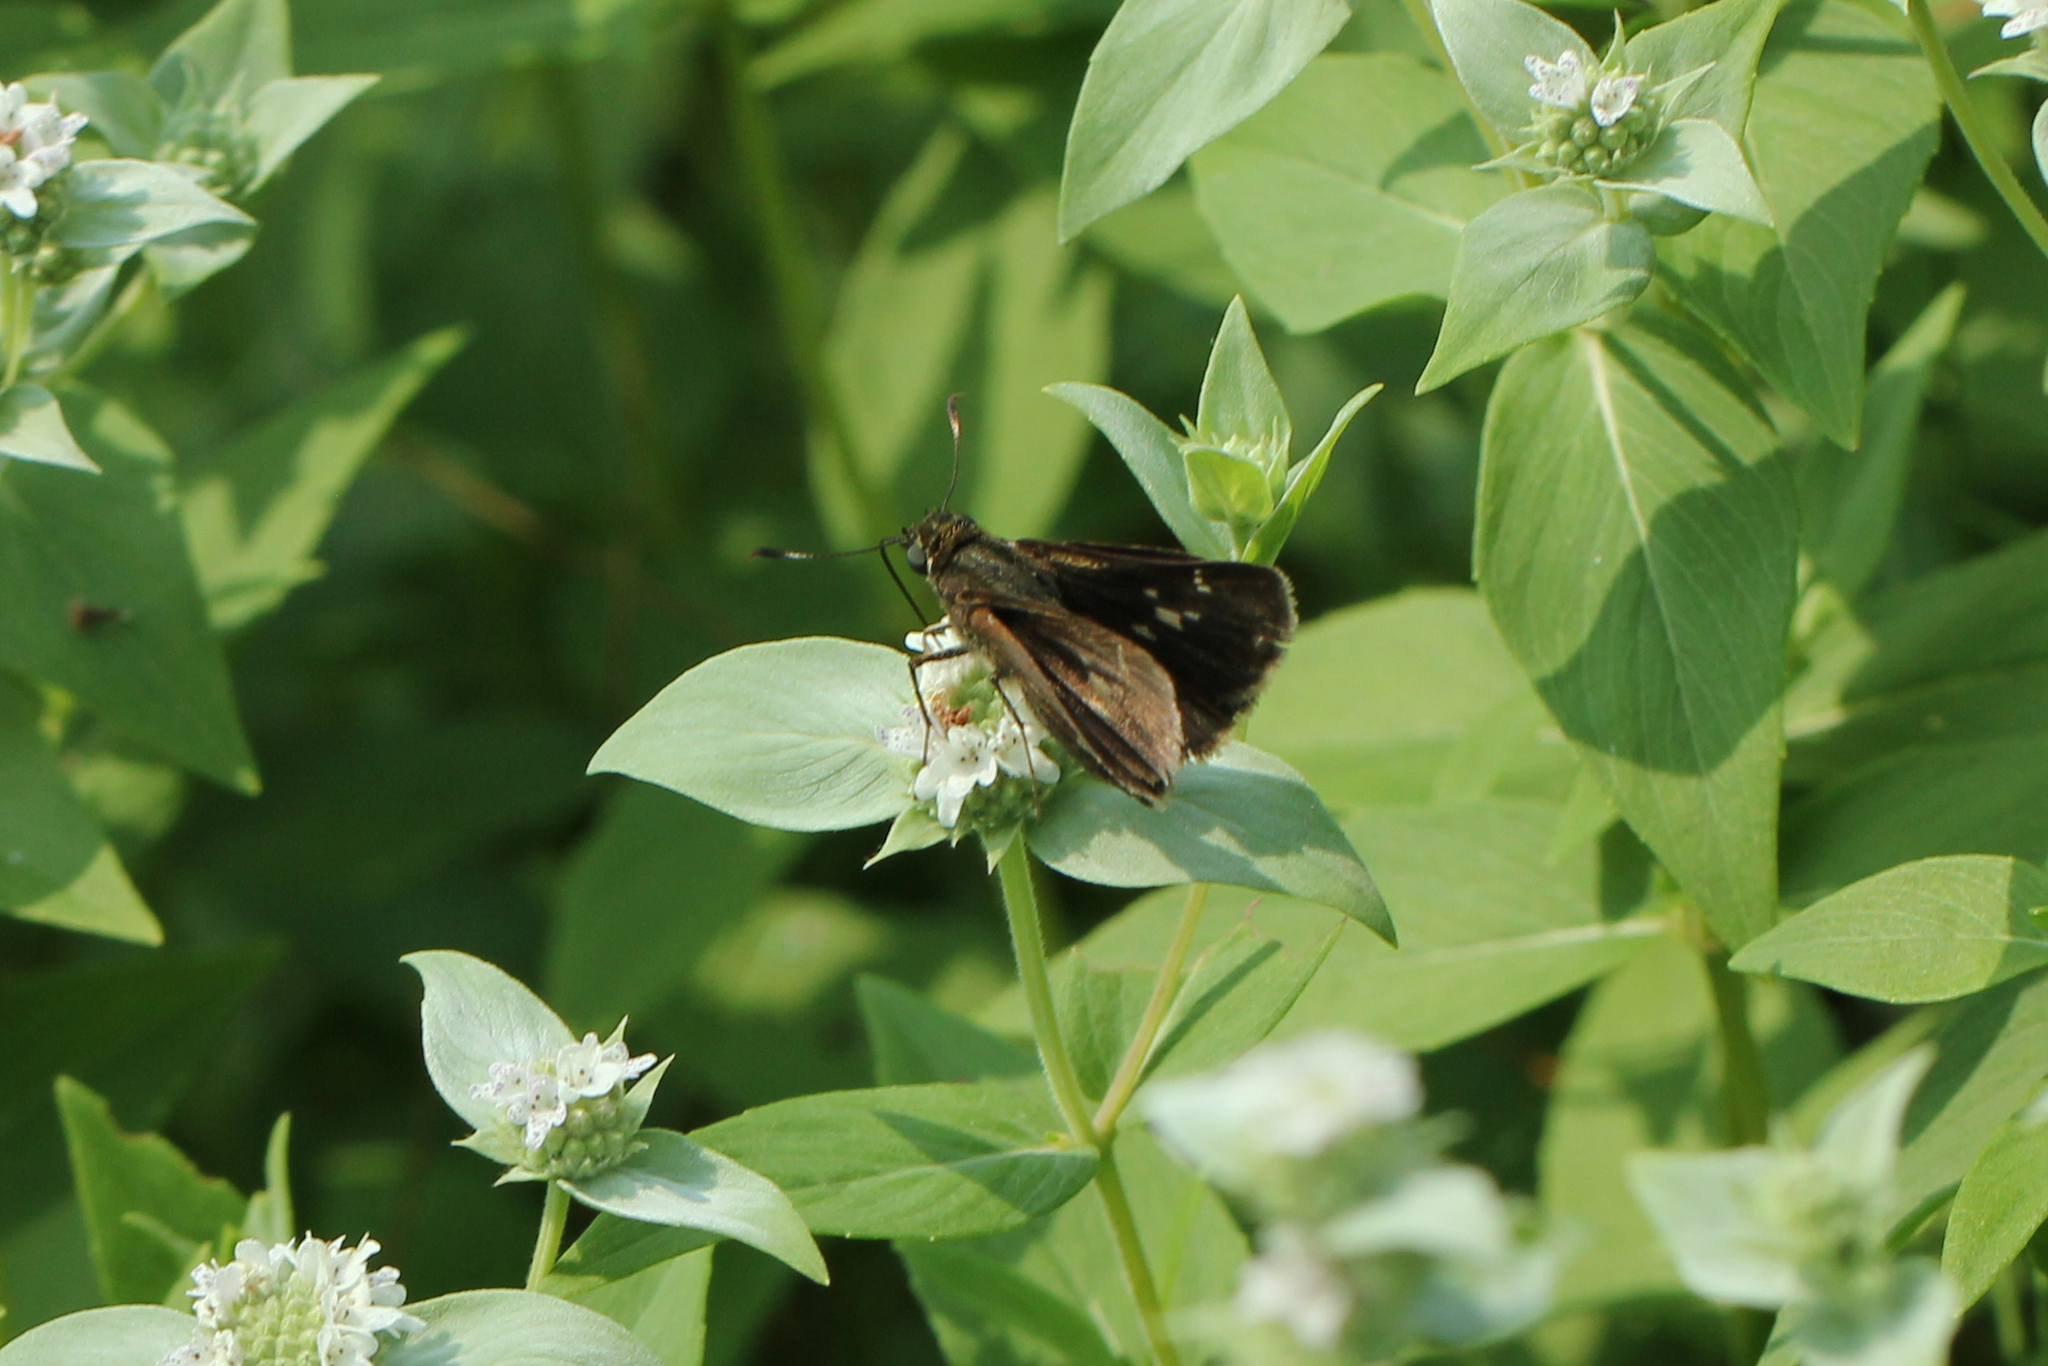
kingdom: Animalia
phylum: Arthropoda
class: Insecta
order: Lepidoptera
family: Hesperiidae
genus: Vernia
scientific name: Vernia verna
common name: Little glassywing
